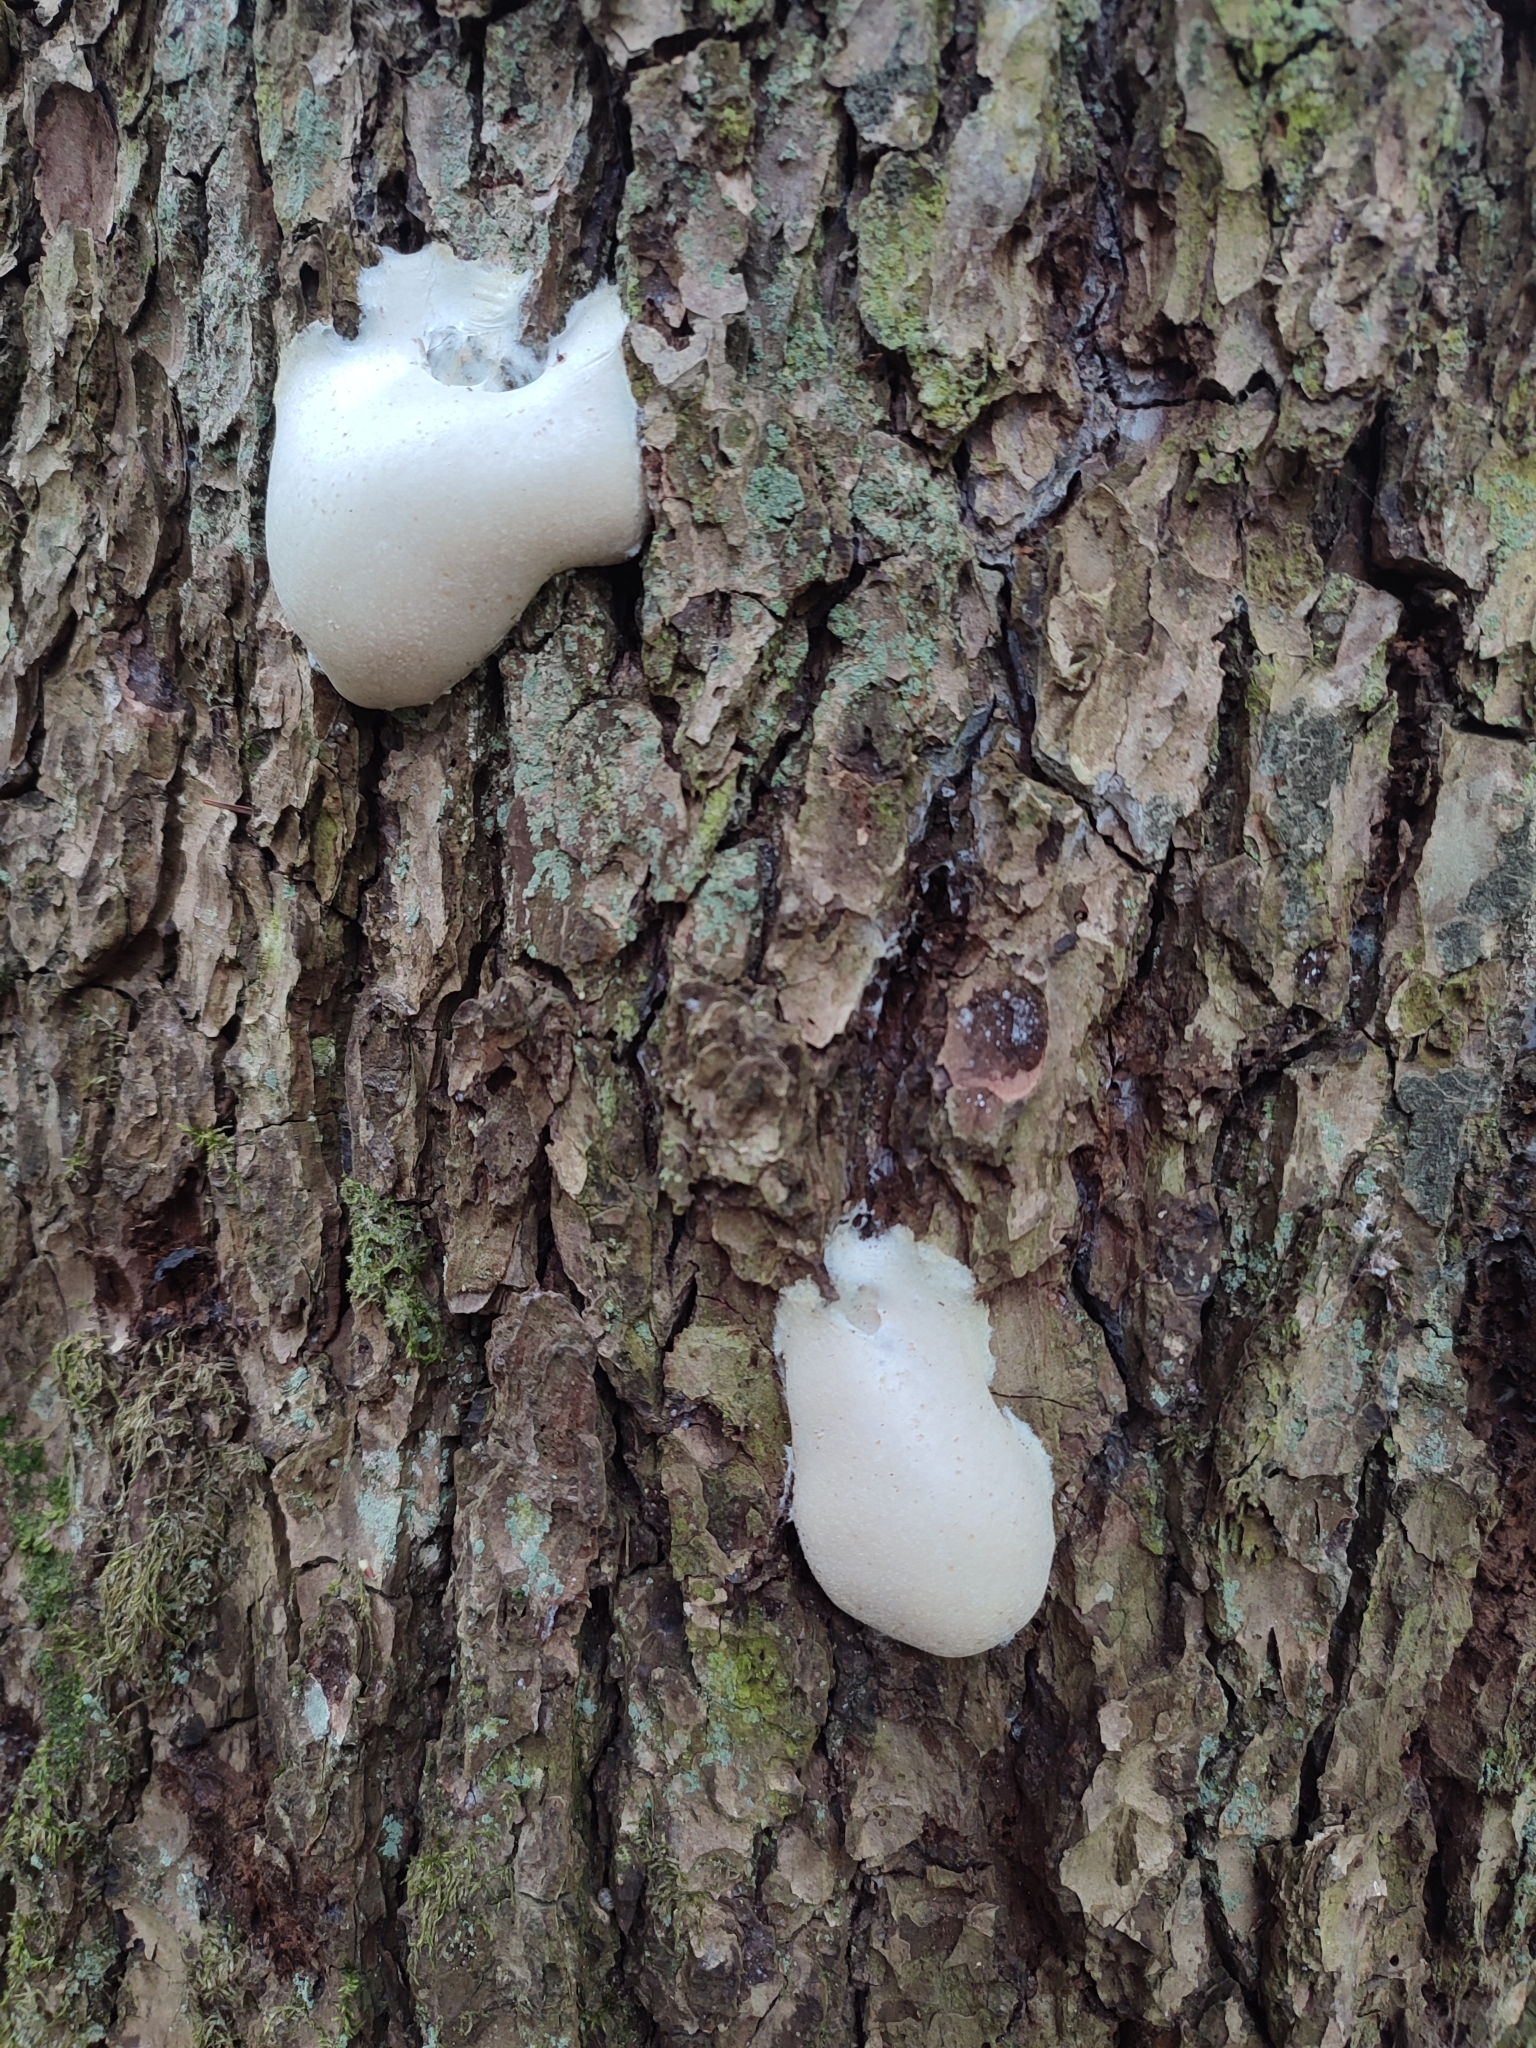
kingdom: Protozoa
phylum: Mycetozoa
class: Myxomycetes
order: Cribrariales
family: Tubiferaceae
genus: Reticularia
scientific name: Reticularia lycoperdon
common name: False puffball
